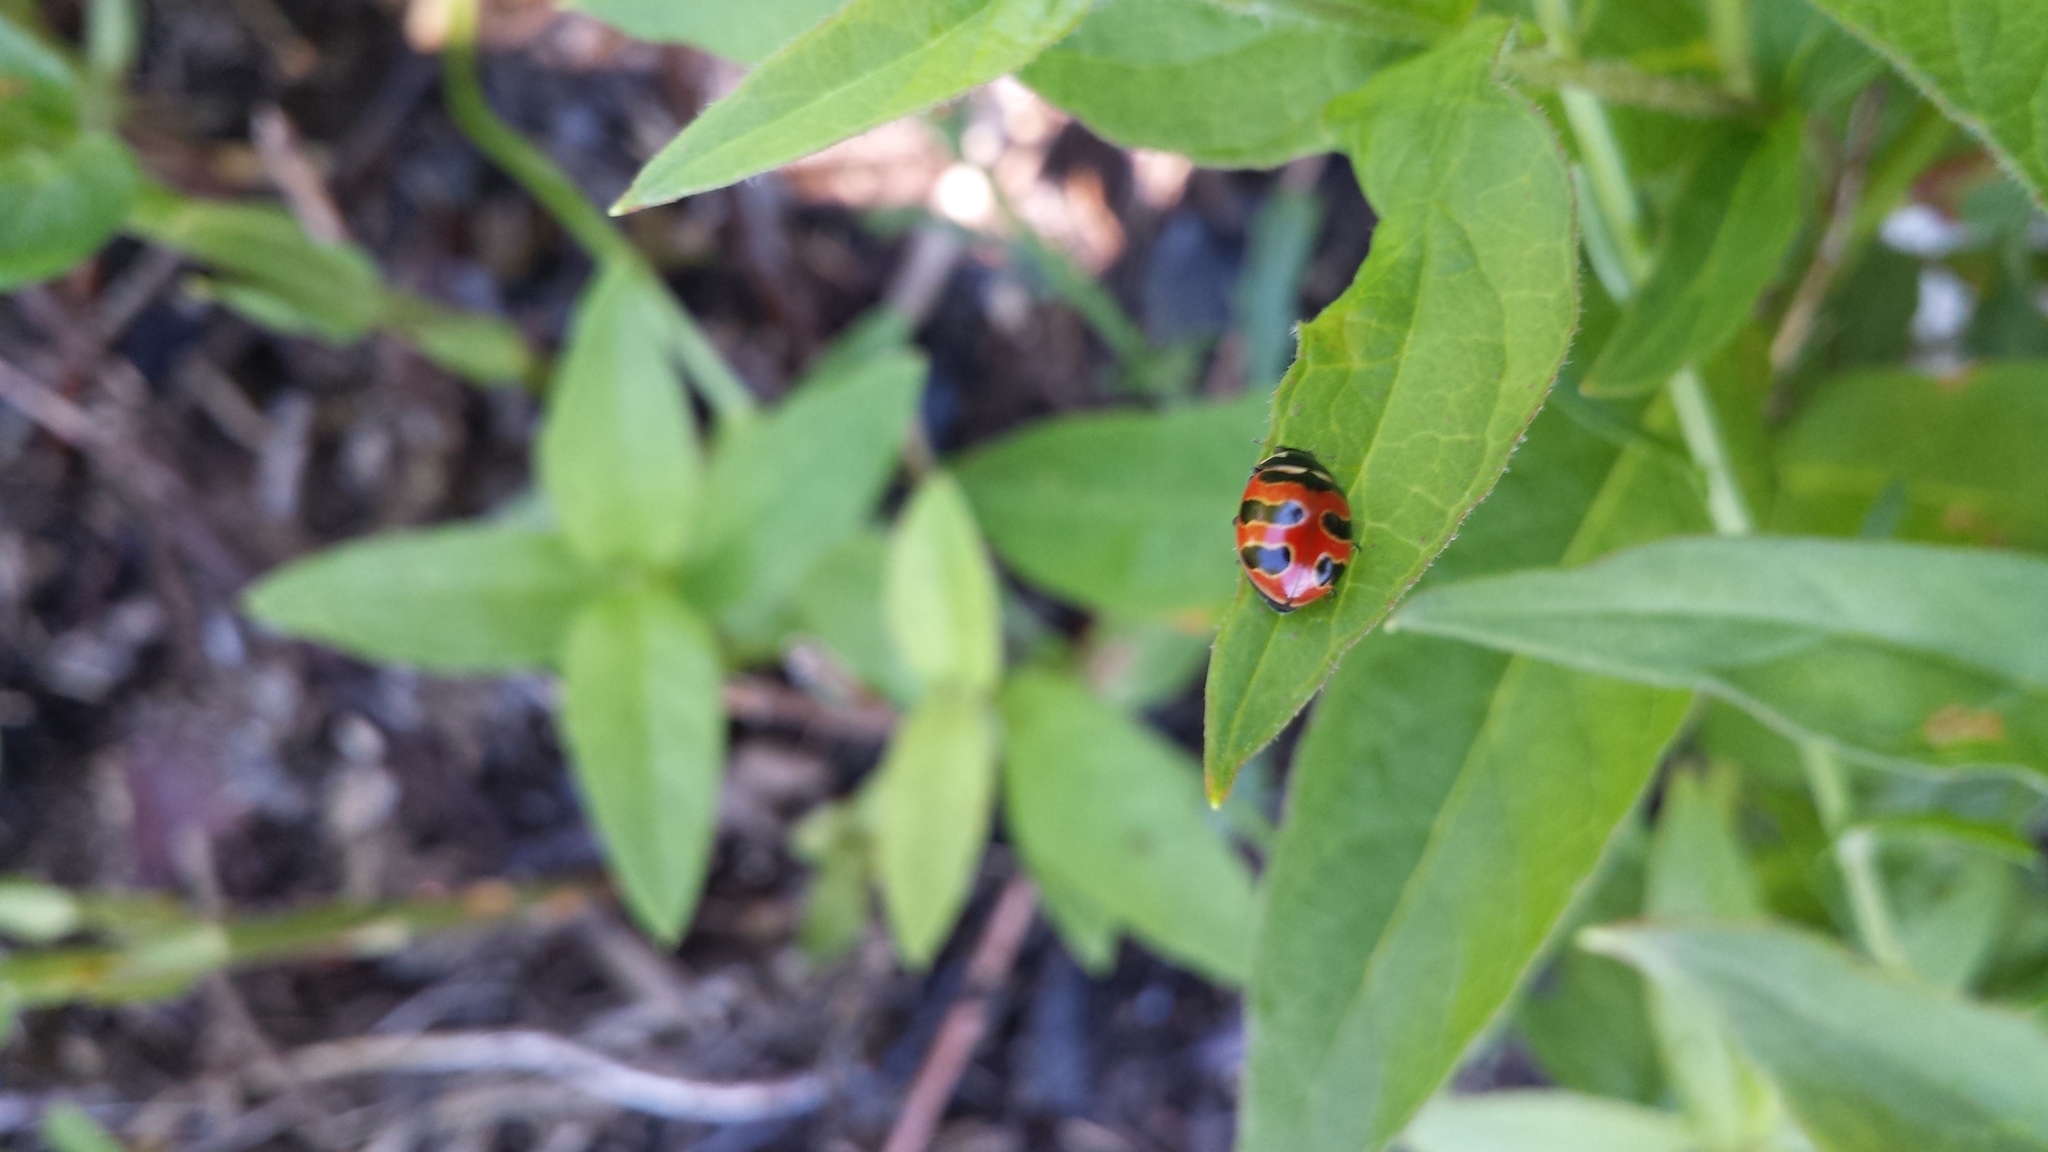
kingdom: Animalia
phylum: Arthropoda
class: Insecta
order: Coleoptera
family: Coccinellidae
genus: Coccinella
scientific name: Coccinella trifasciata
